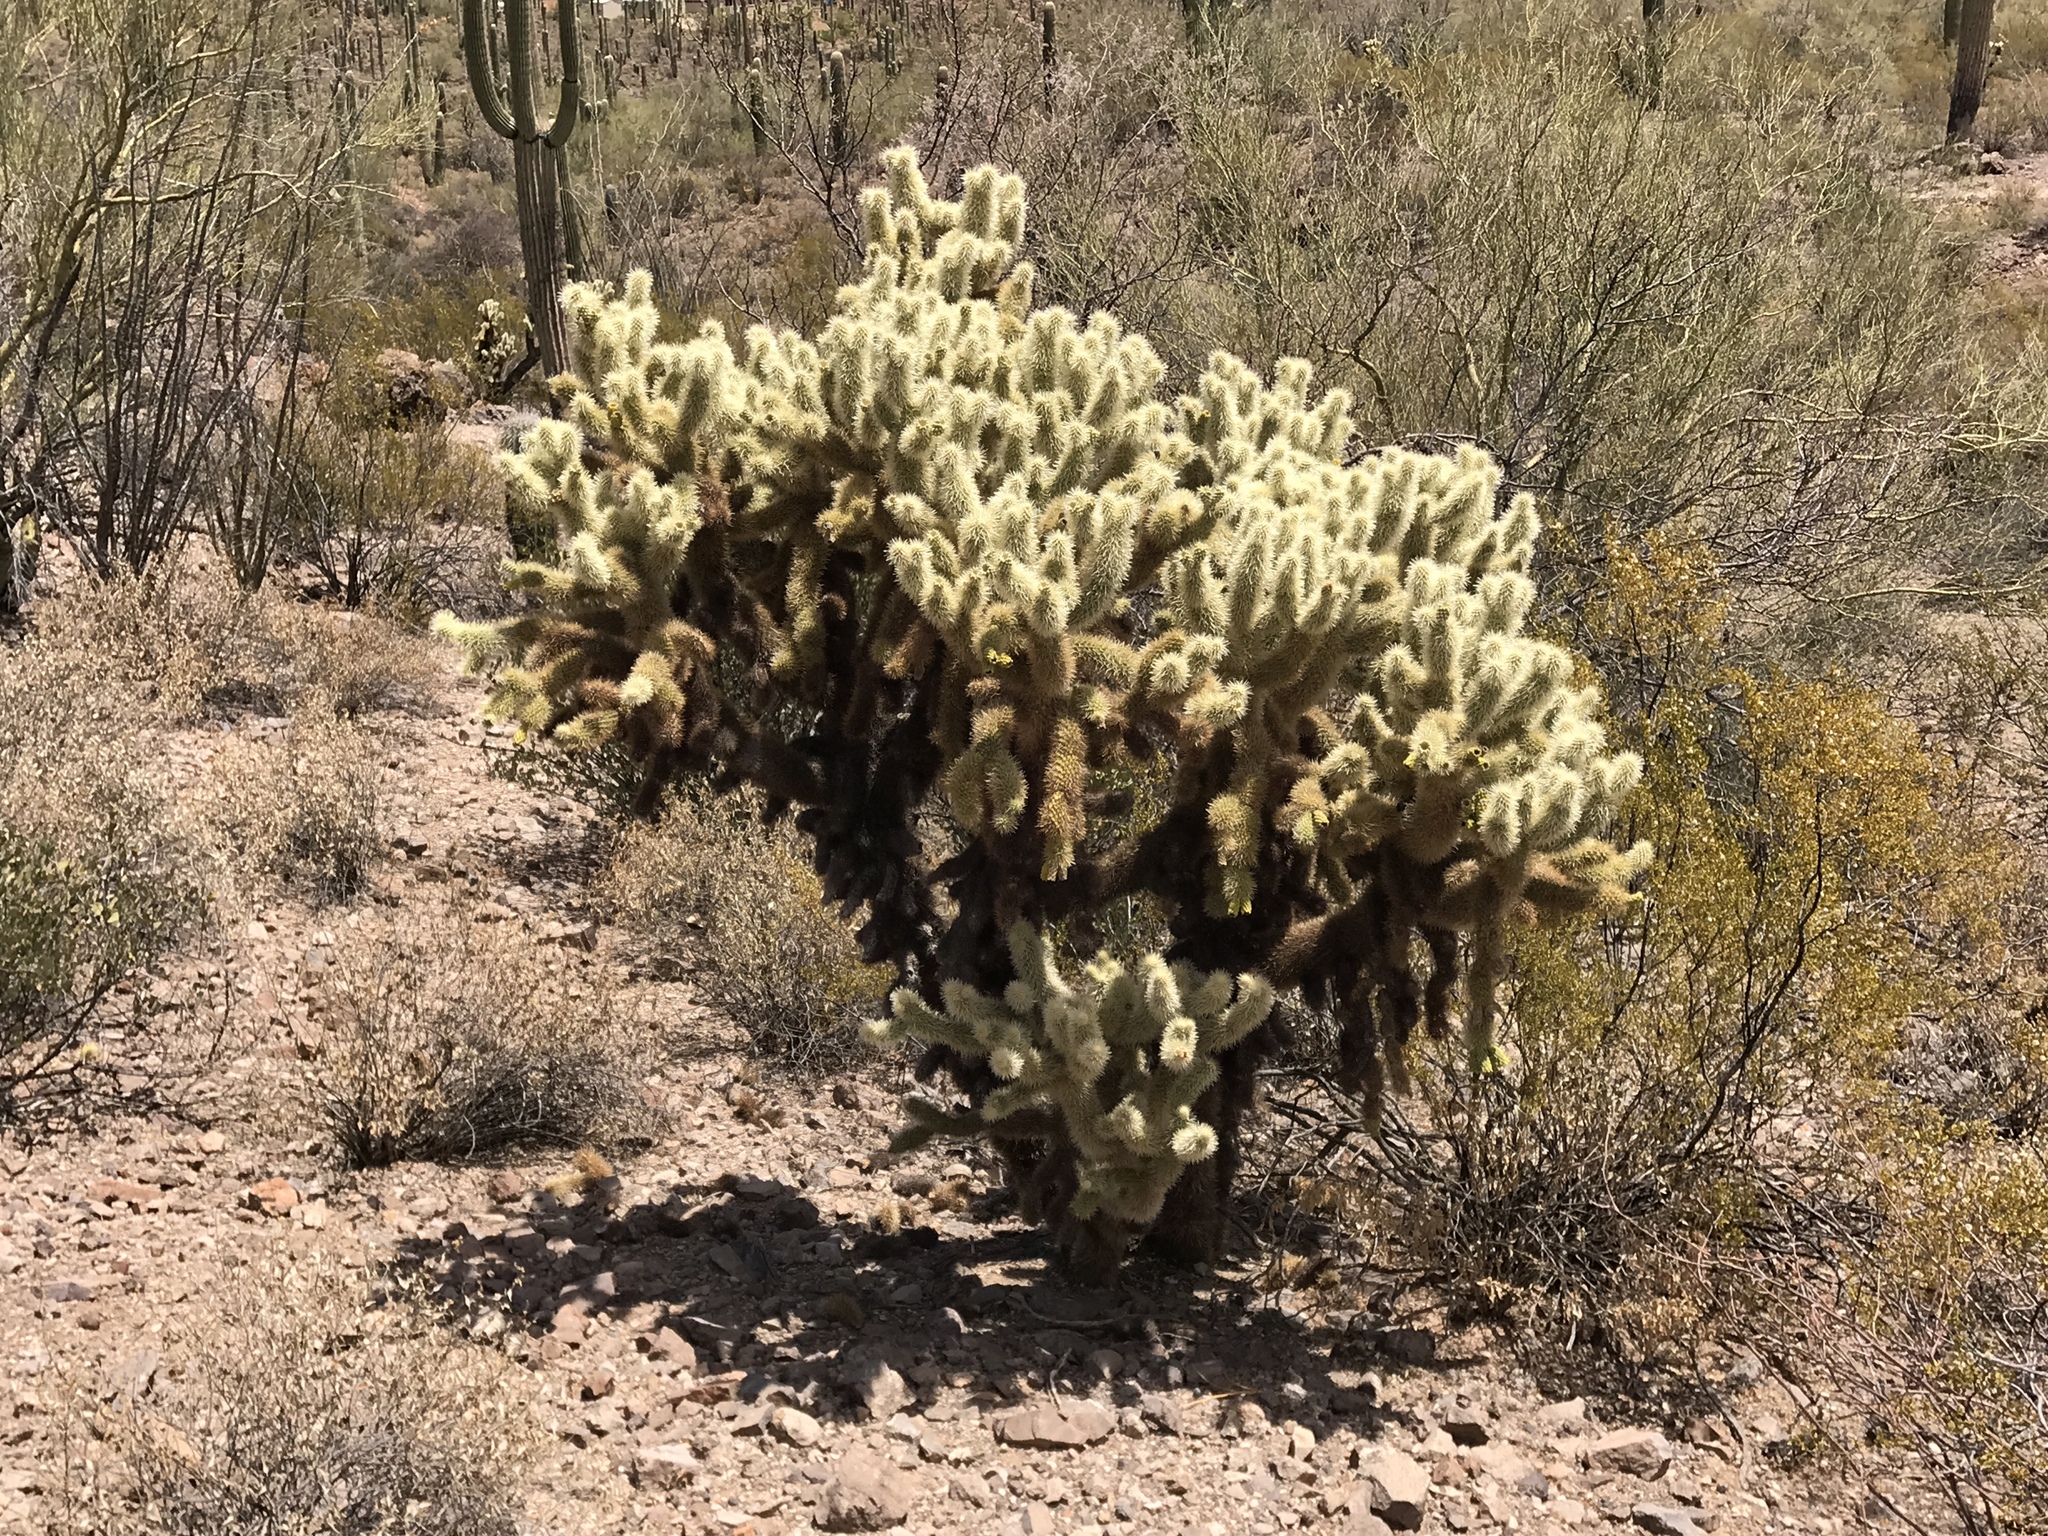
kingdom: Plantae
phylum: Tracheophyta
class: Magnoliopsida
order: Caryophyllales
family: Cactaceae
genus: Cylindropuntia
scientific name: Cylindropuntia fosbergii
